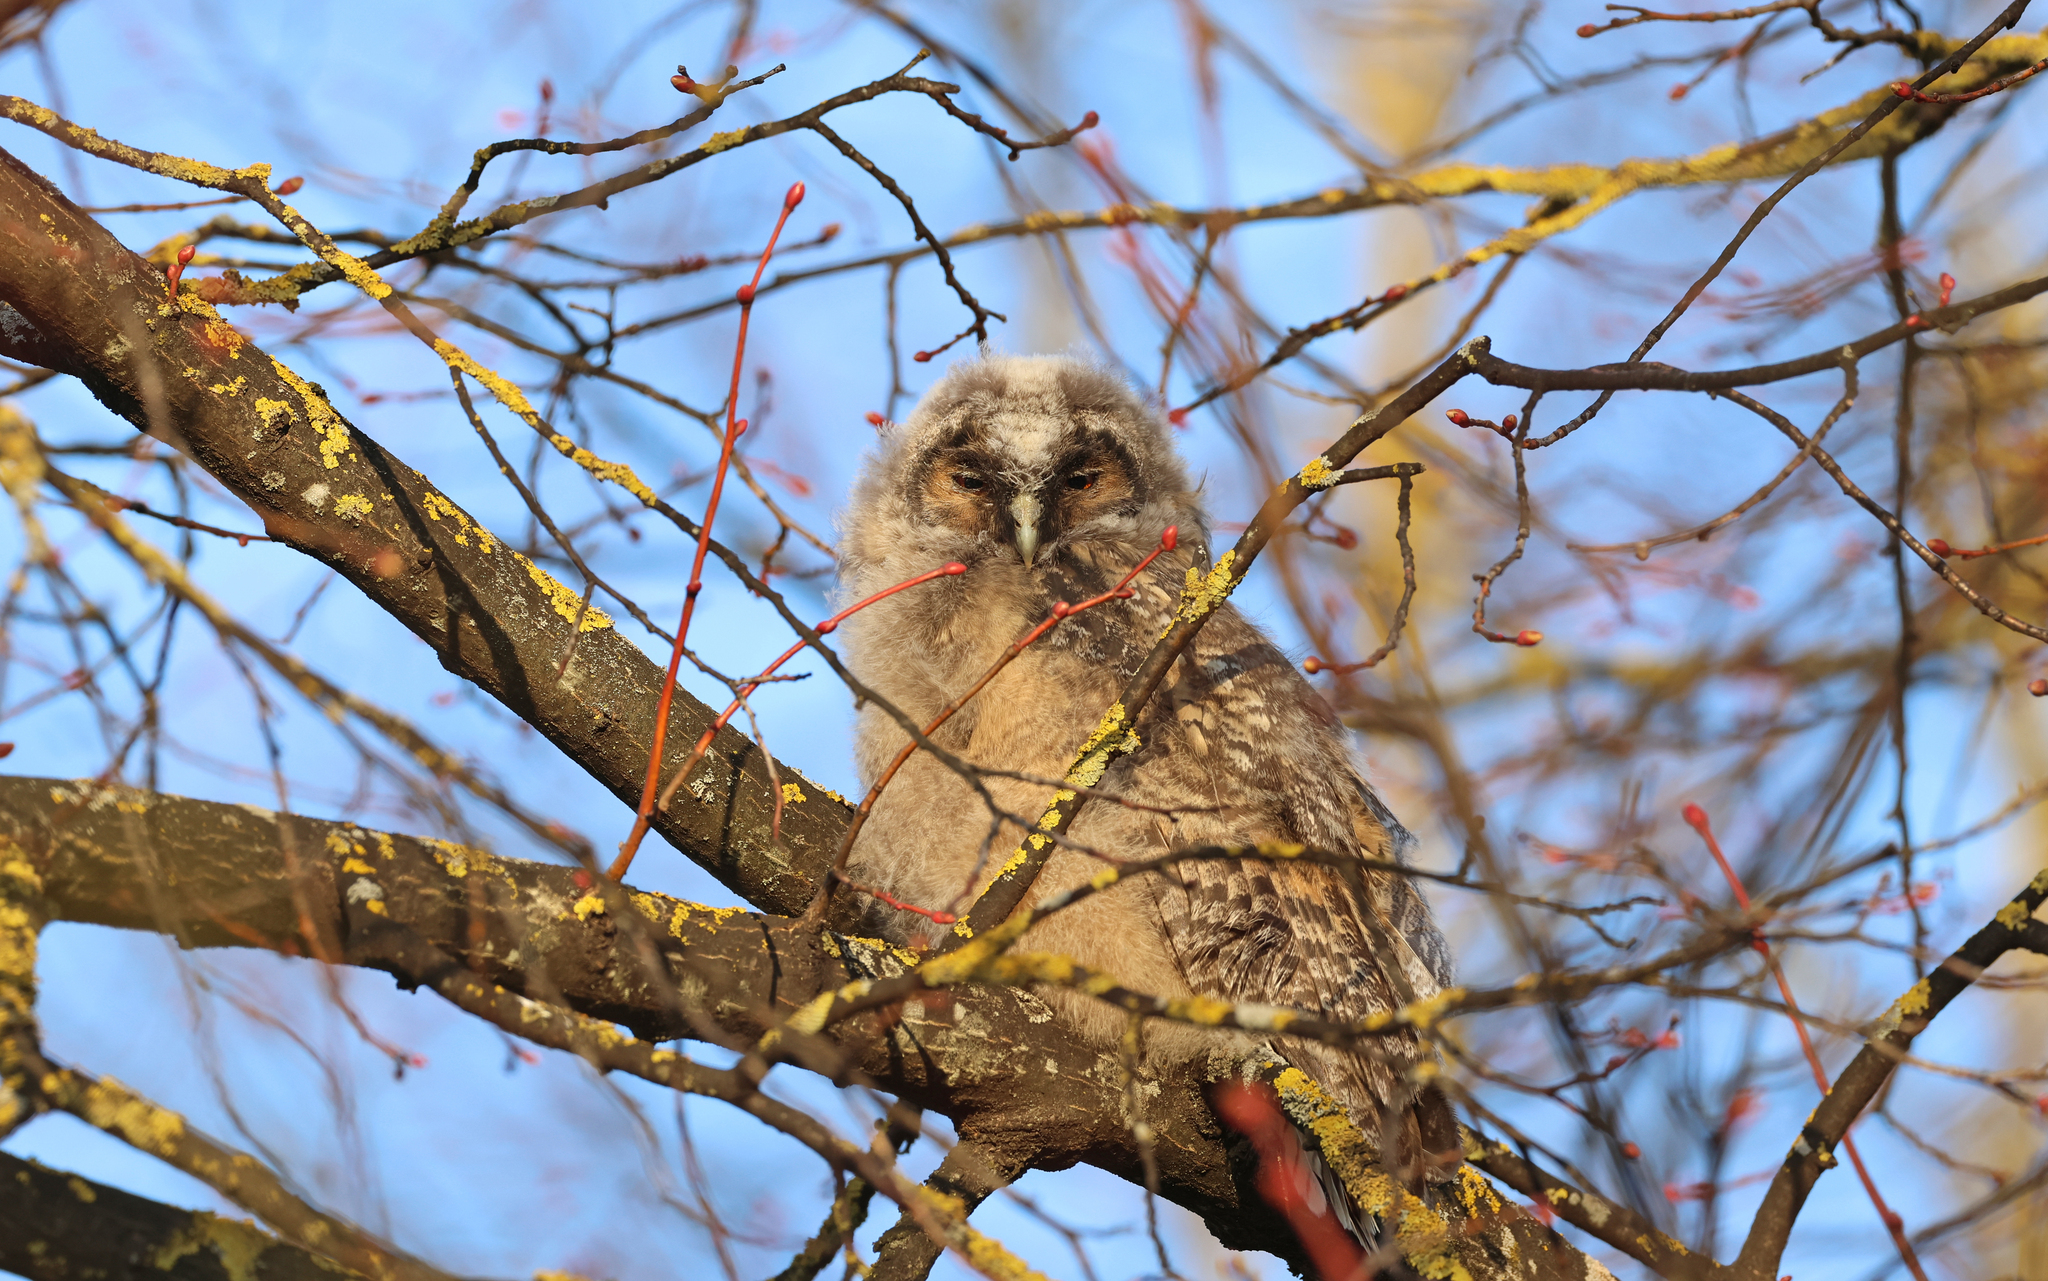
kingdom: Animalia
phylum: Chordata
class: Aves
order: Strigiformes
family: Strigidae
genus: Asio
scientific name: Asio otus
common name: Long-eared owl
